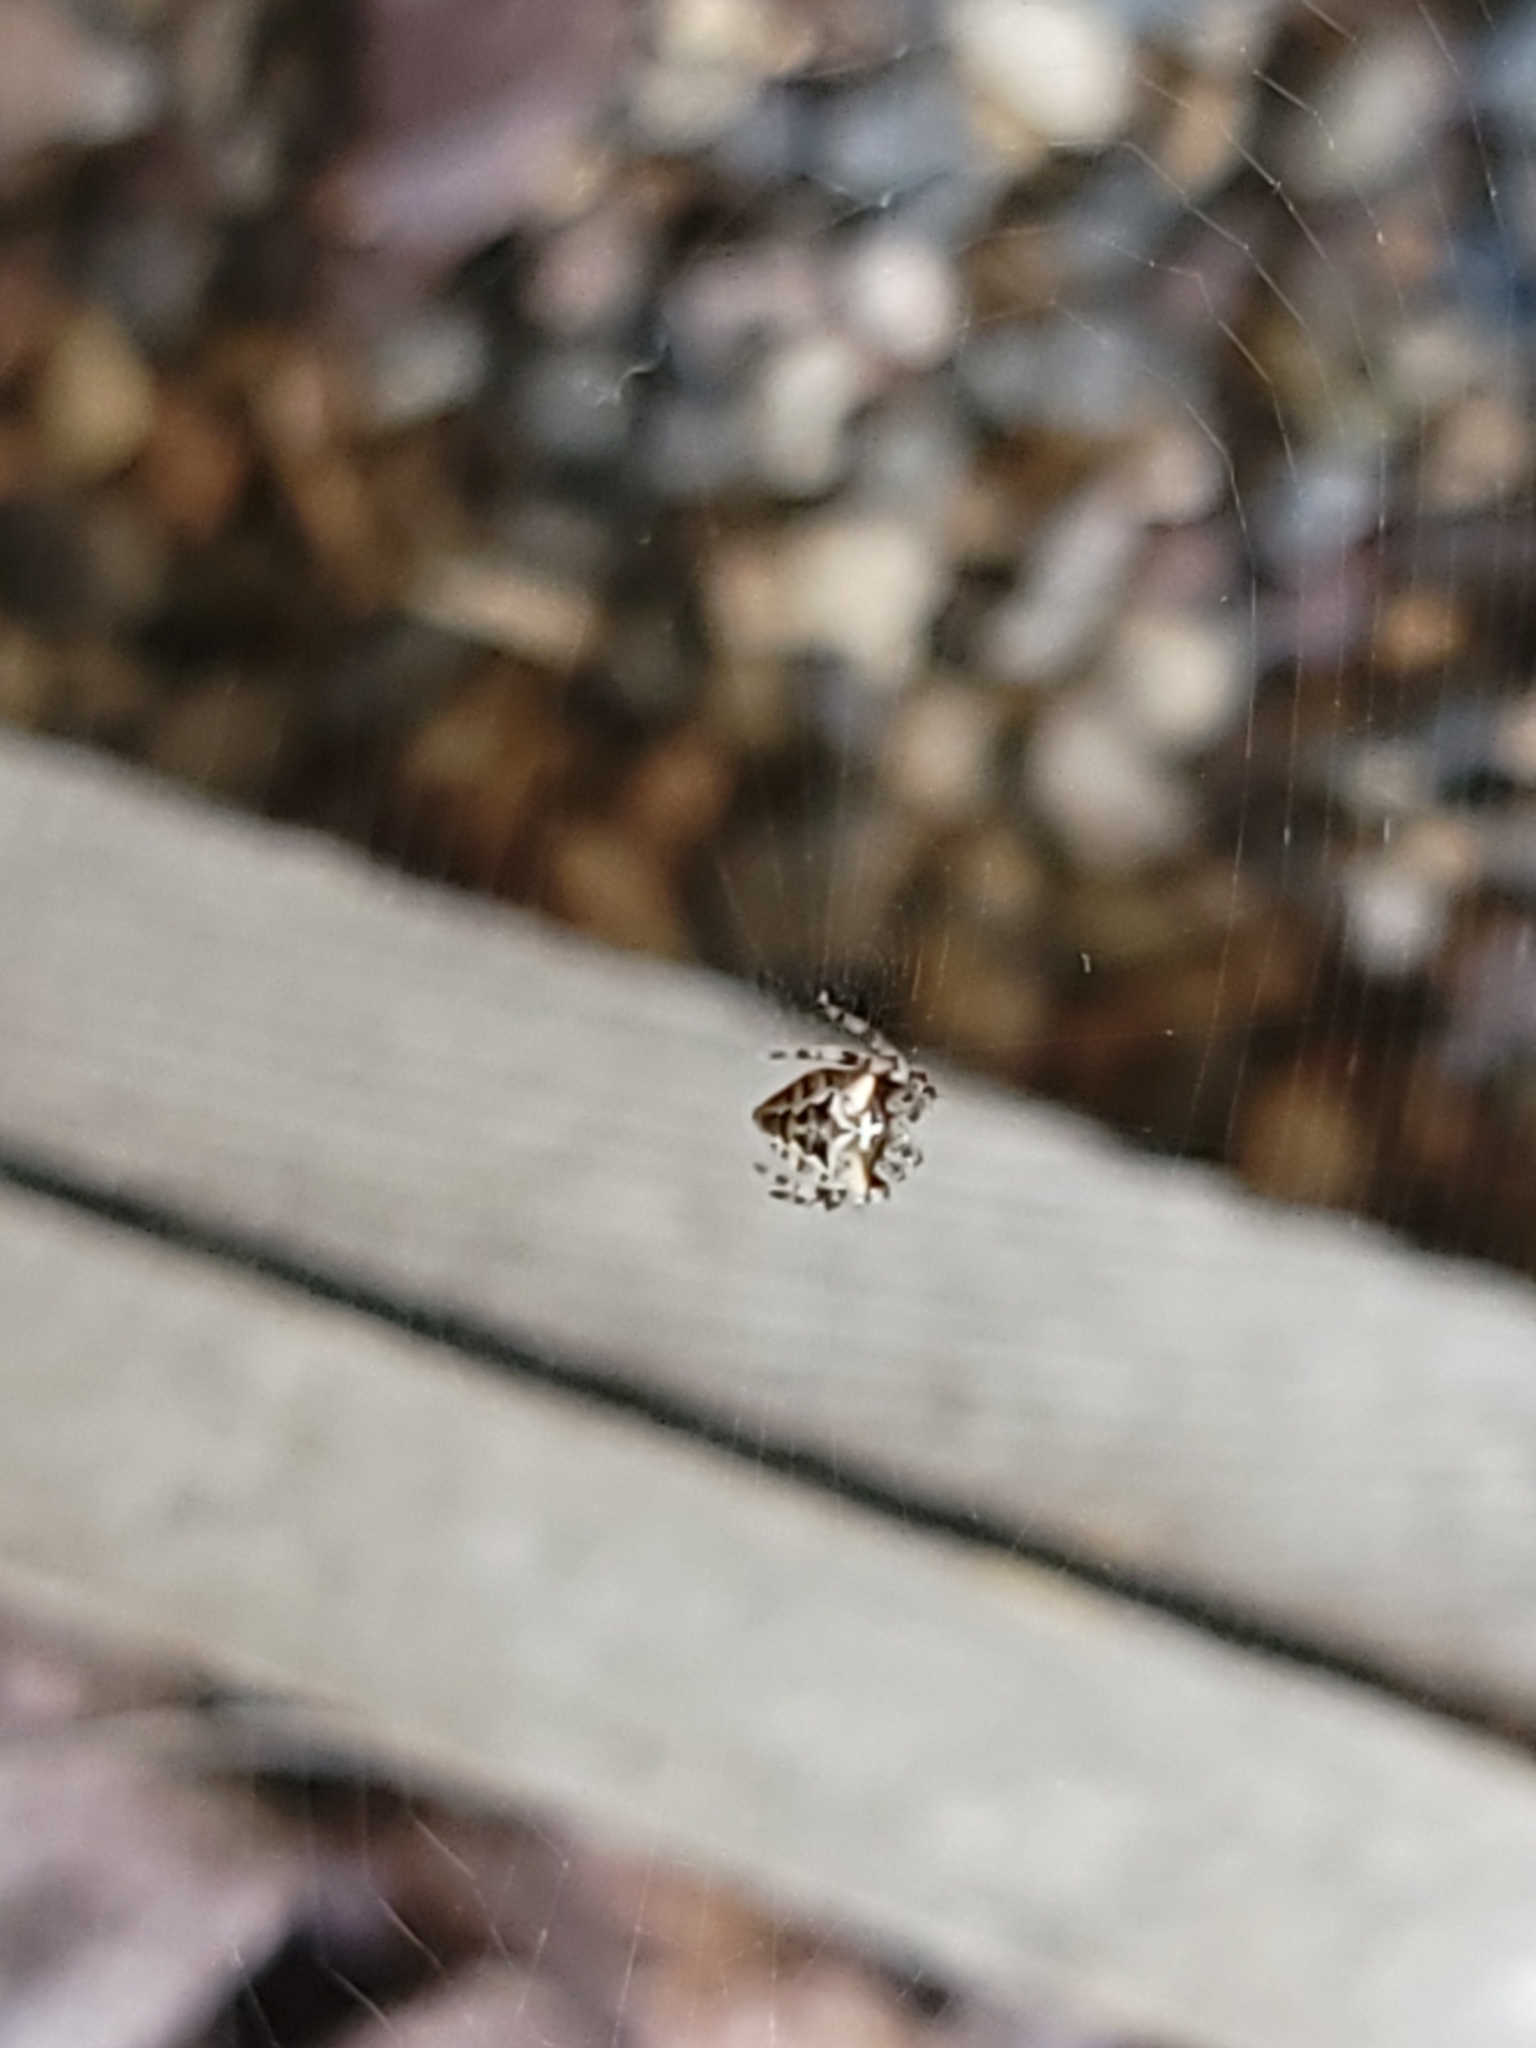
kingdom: Animalia
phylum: Arthropoda
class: Arachnida
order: Araneae
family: Araneidae
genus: Araneus
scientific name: Araneus gemmoides
